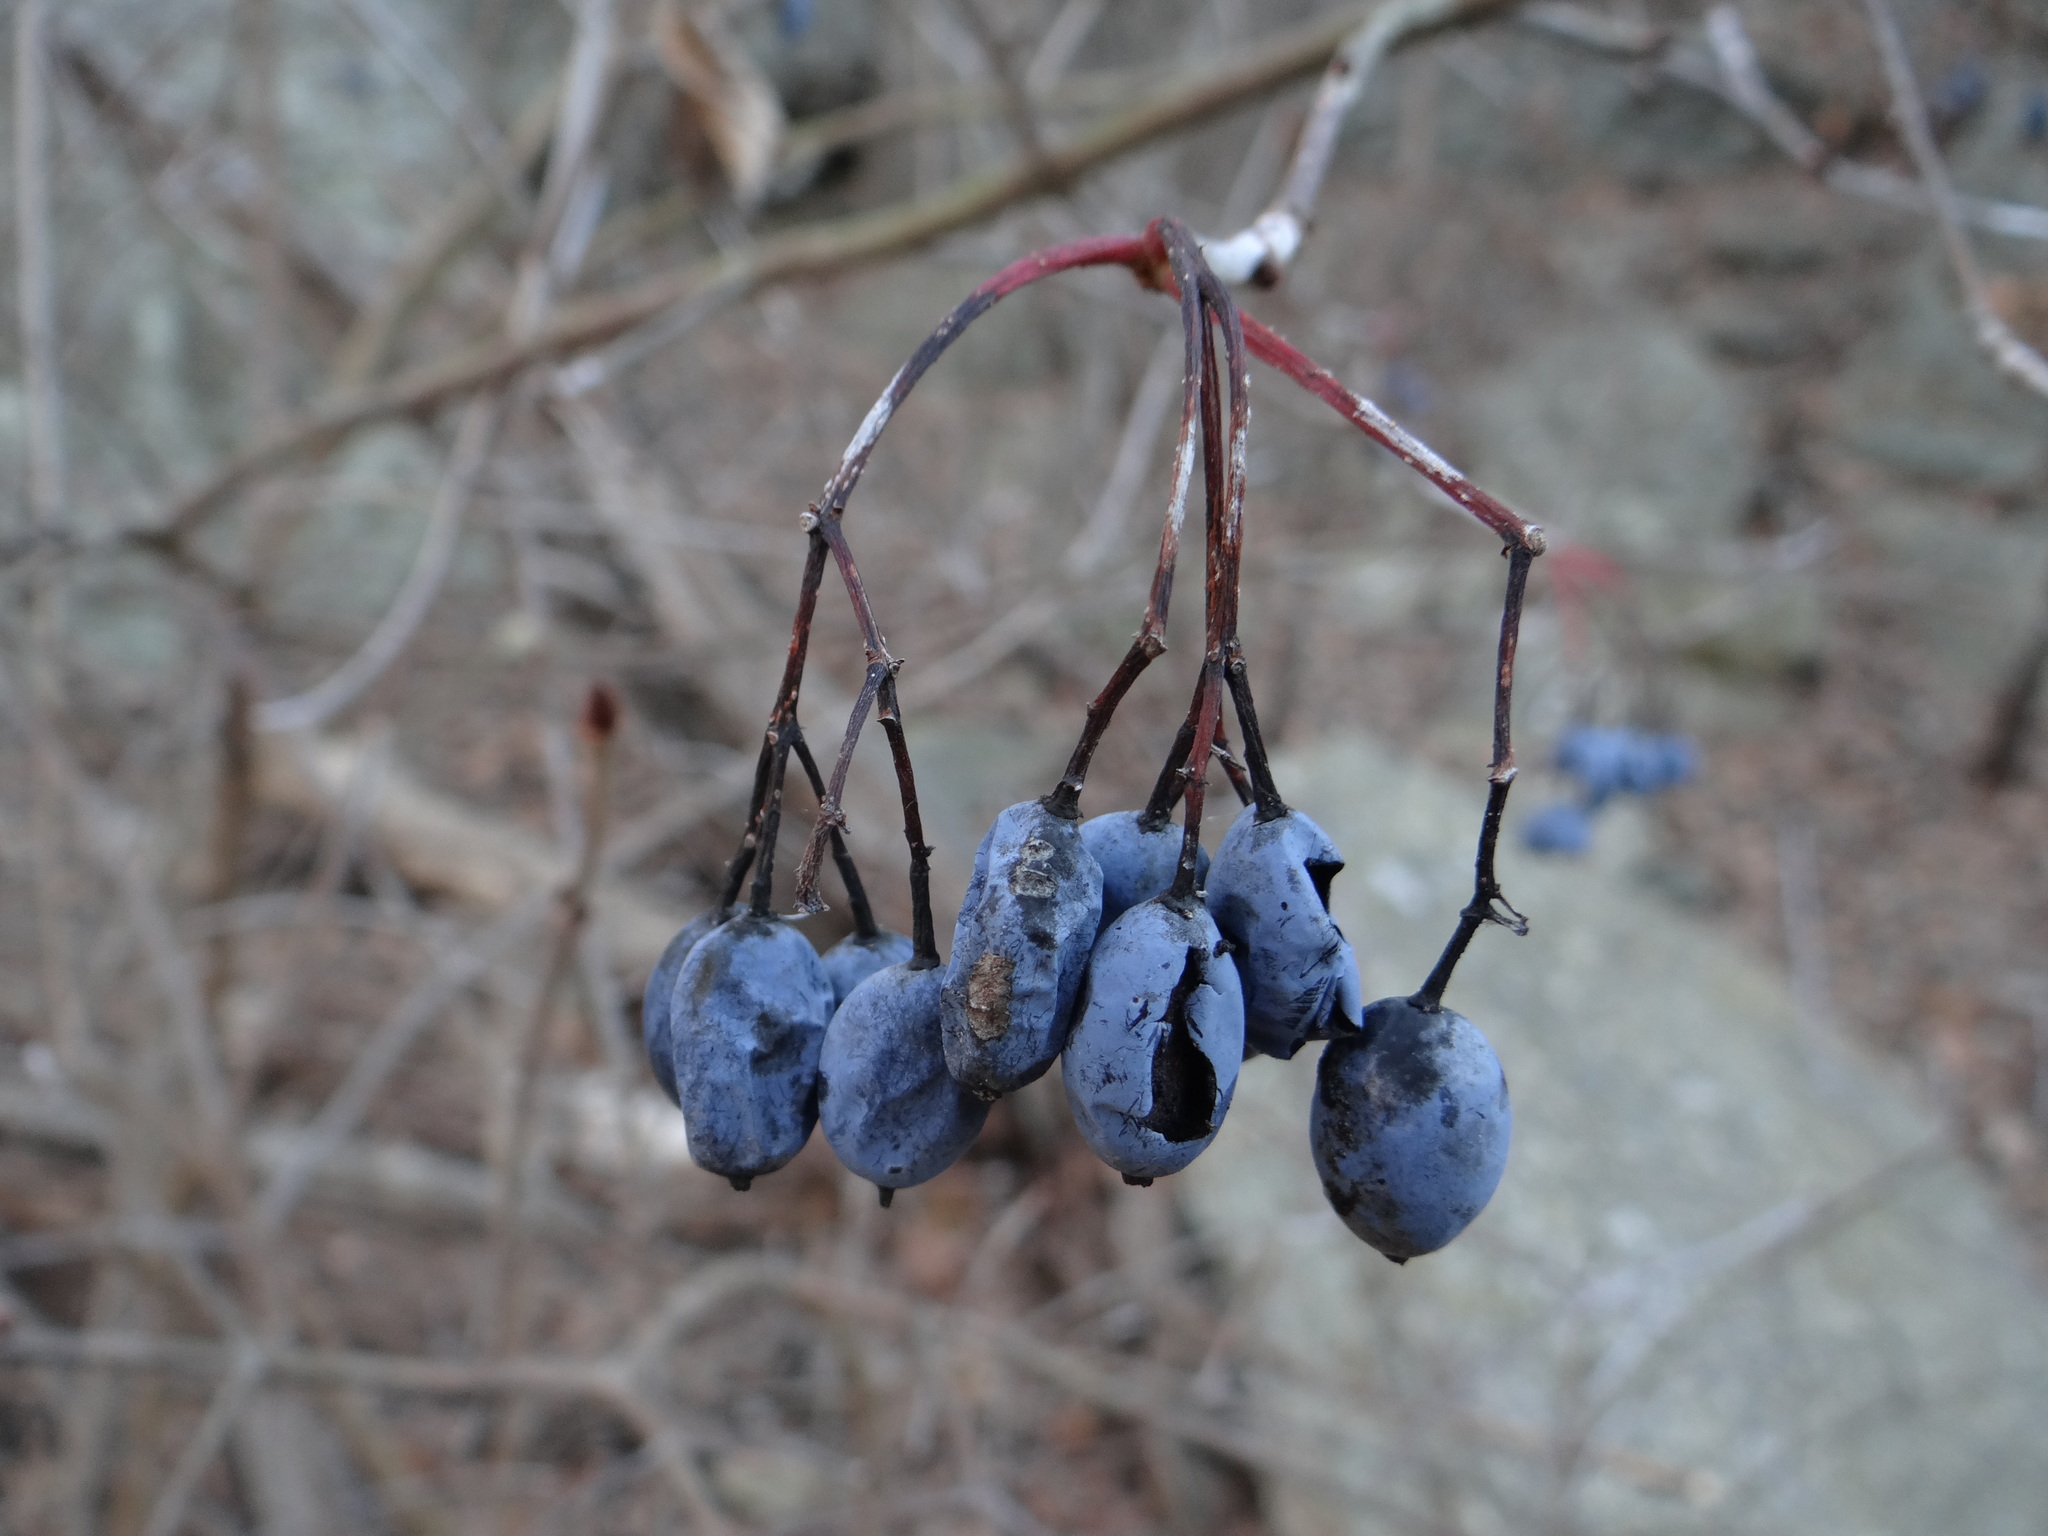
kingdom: Plantae
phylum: Tracheophyta
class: Magnoliopsida
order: Dipsacales
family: Viburnaceae
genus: Viburnum
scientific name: Viburnum rufidulum
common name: Blue haw
